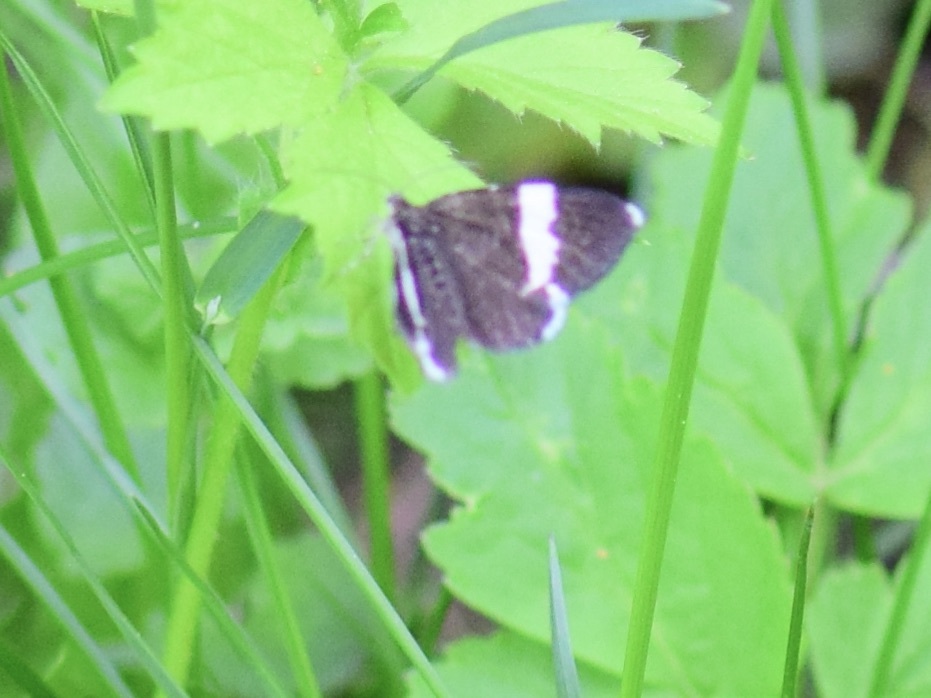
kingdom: Animalia
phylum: Arthropoda
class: Insecta
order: Lepidoptera
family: Geometridae
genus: Trichodezia
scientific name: Trichodezia albovittata
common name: White striped black
